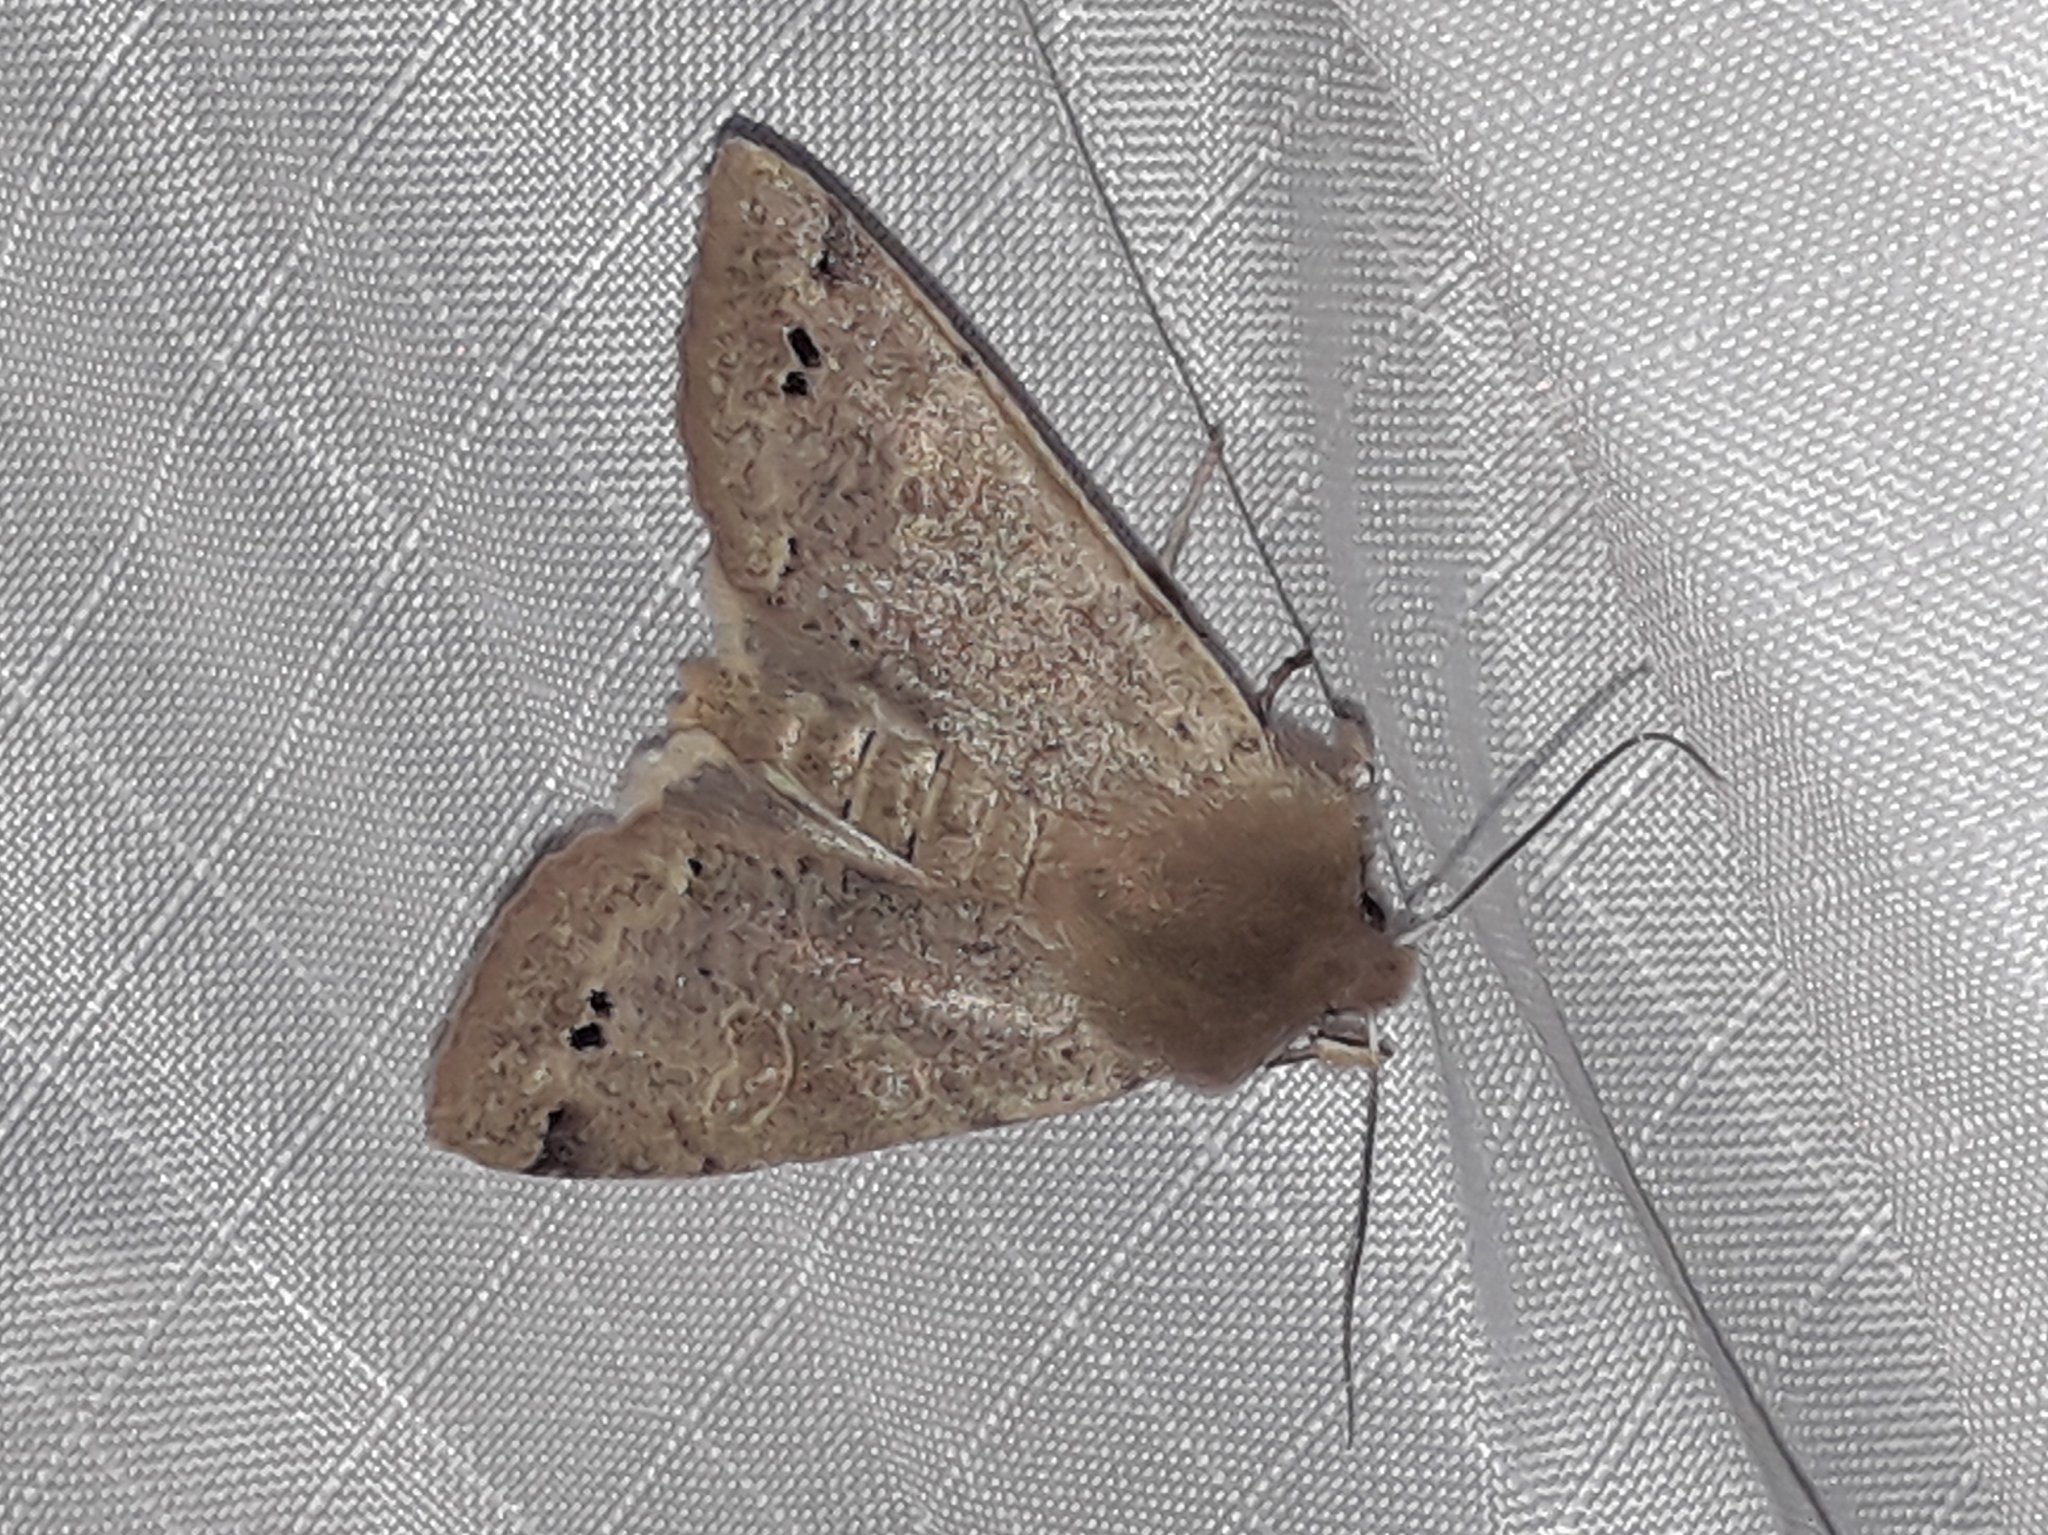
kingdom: Animalia
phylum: Arthropoda
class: Insecta
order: Lepidoptera
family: Noctuidae
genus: Anorthoa
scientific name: Anorthoa munda
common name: Twin-spotted quaker
